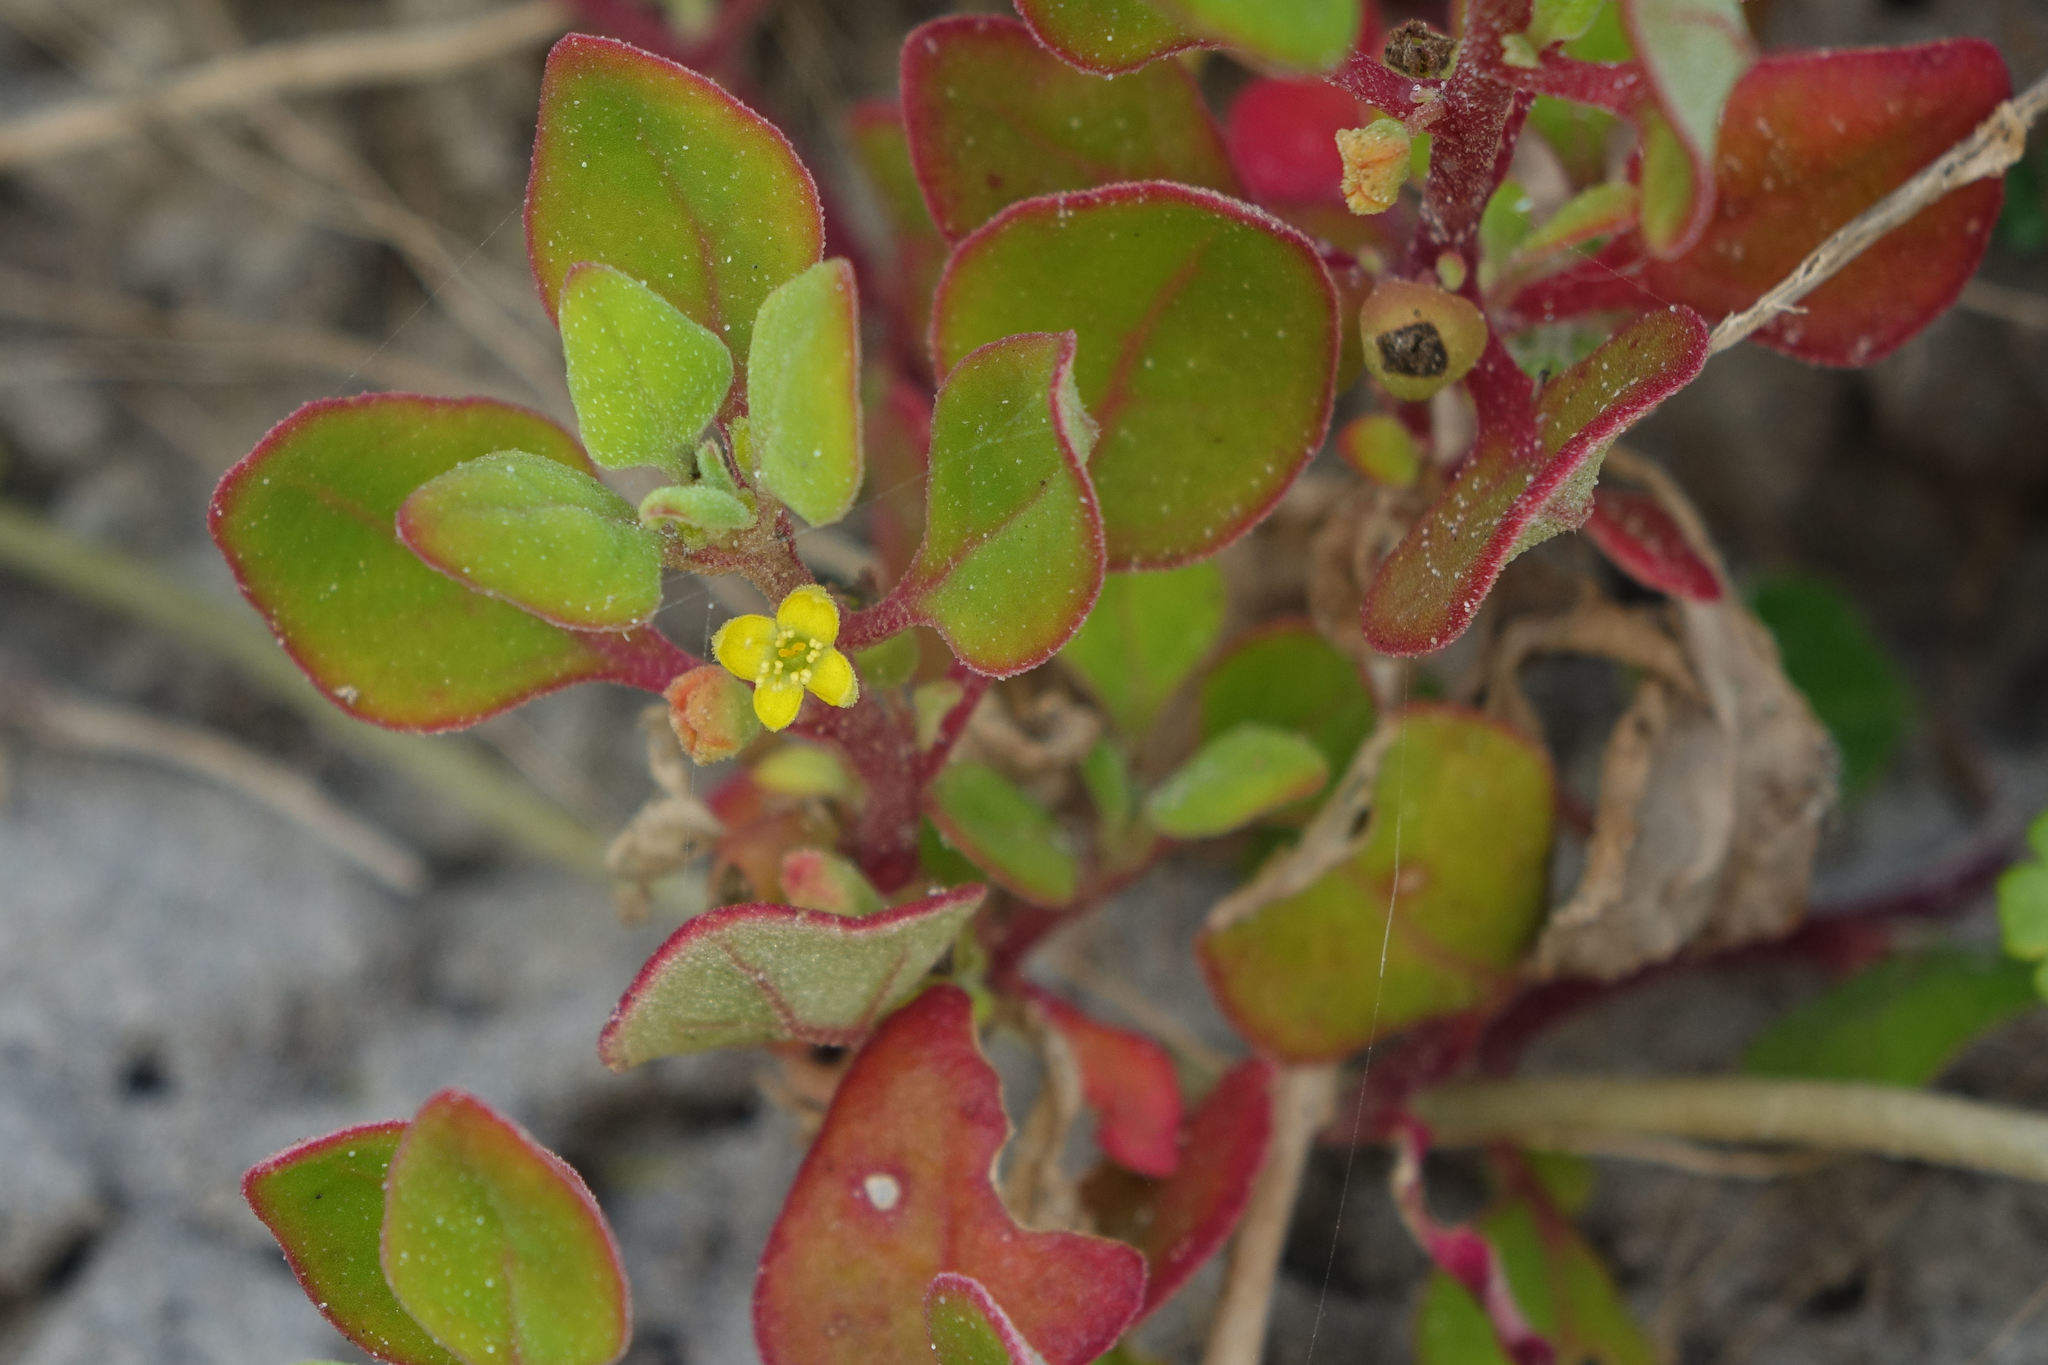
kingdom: Plantae
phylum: Tracheophyta
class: Magnoliopsida
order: Caryophyllales
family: Aizoaceae
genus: Tetragonia
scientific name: Tetragonia implexicoma
